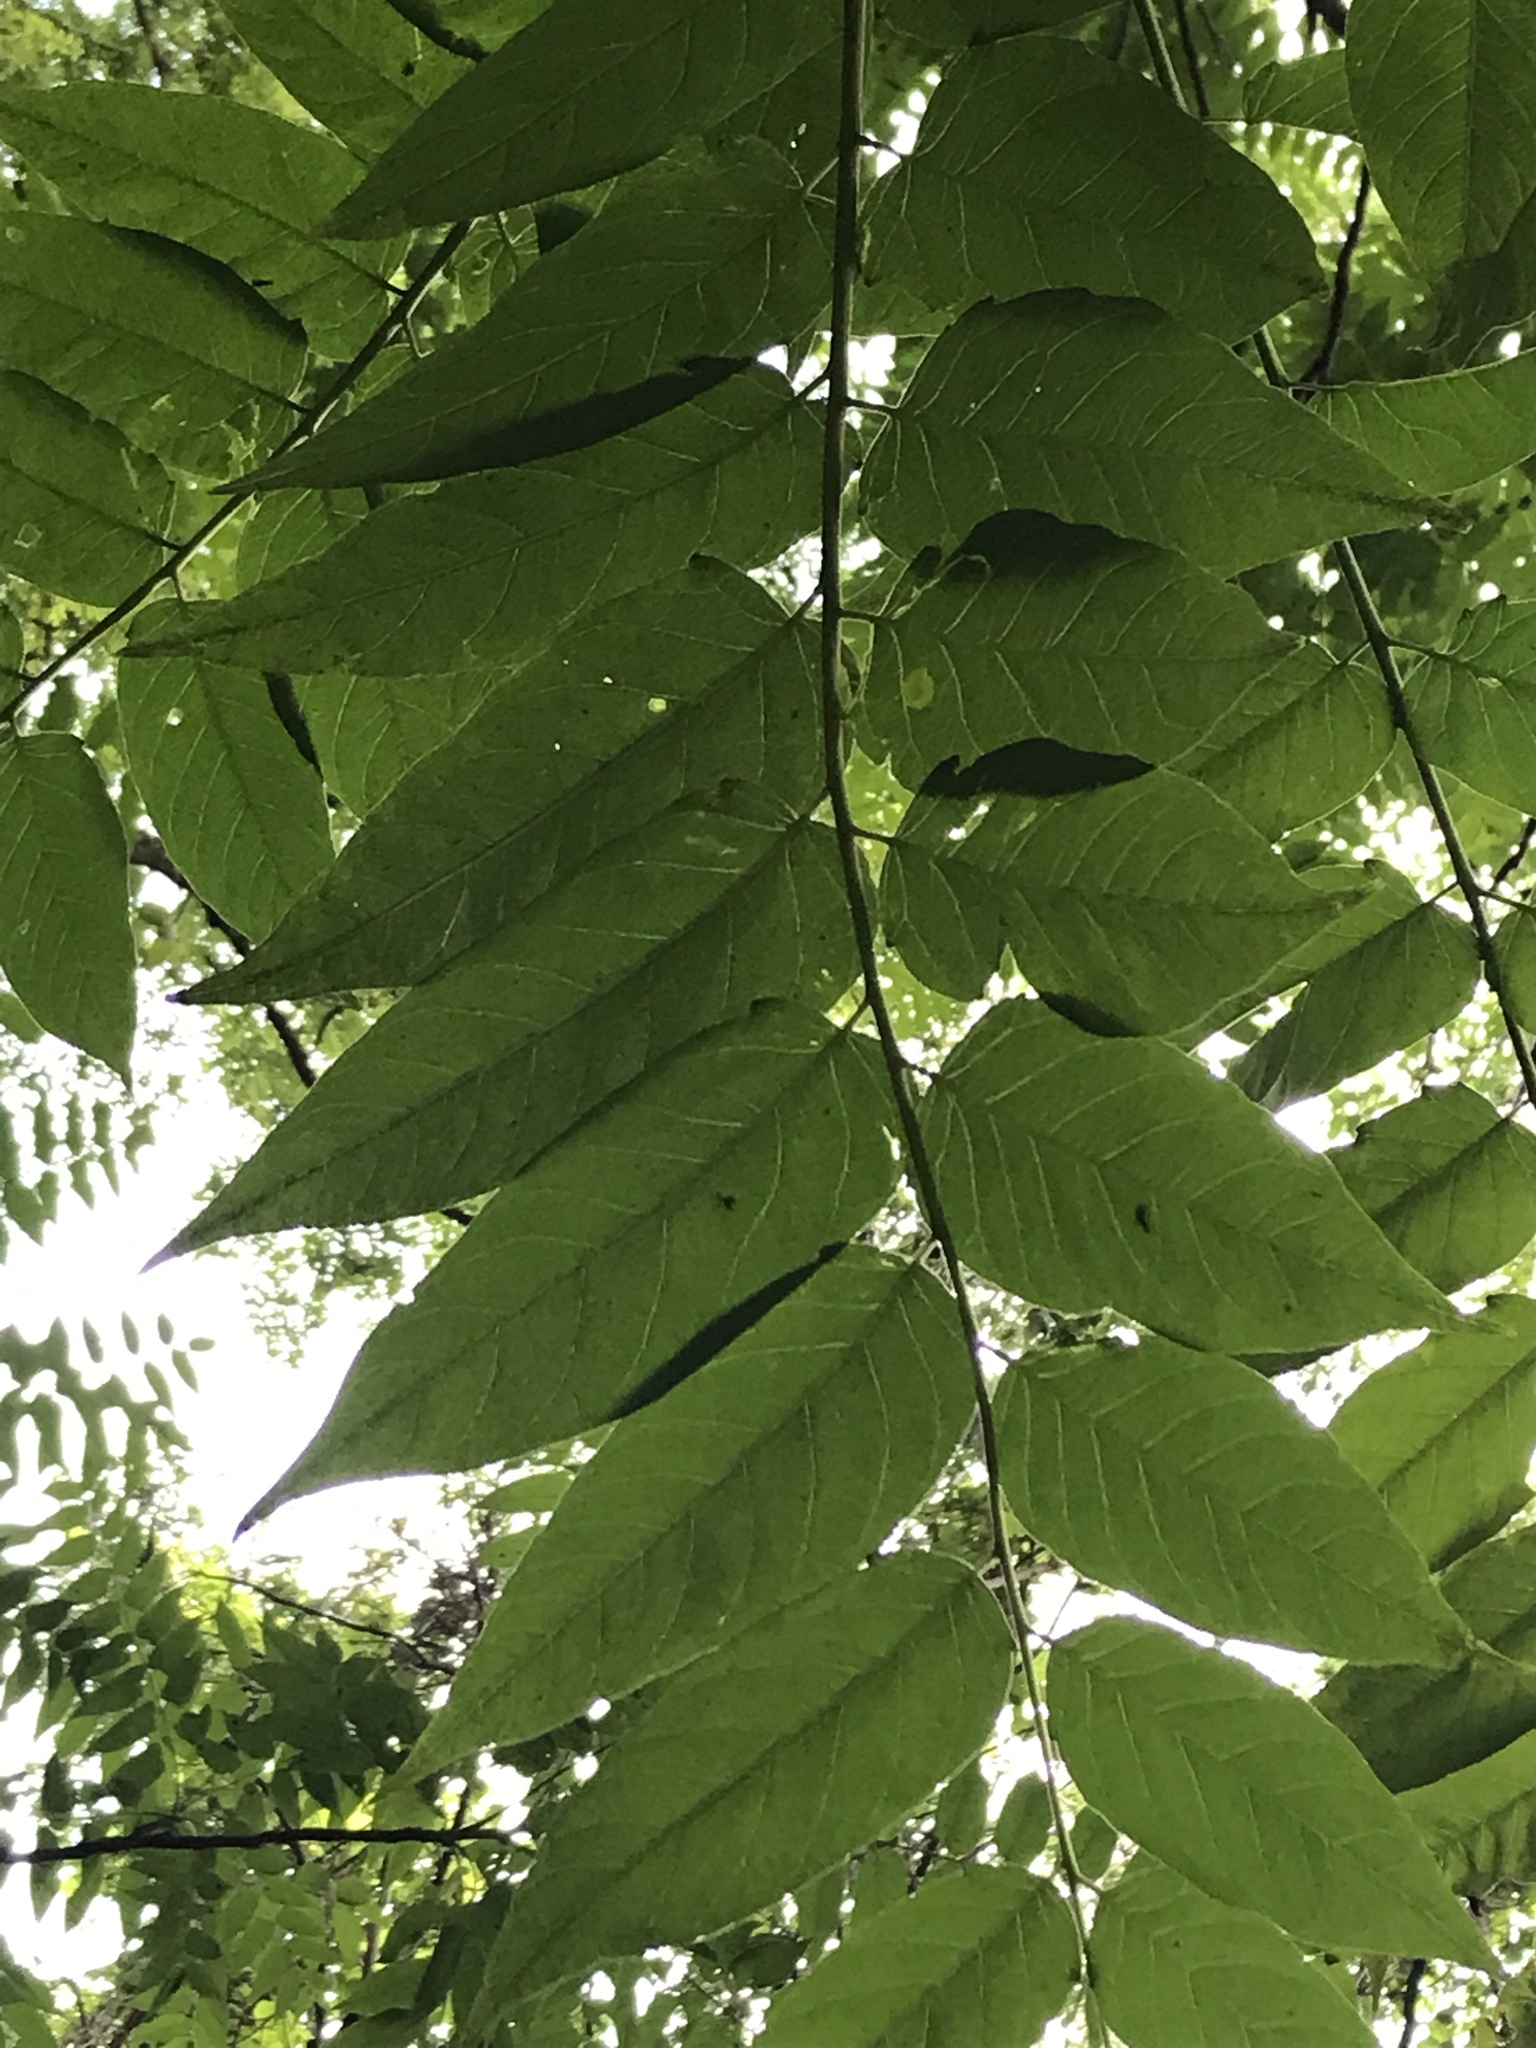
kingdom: Plantae
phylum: Tracheophyta
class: Magnoliopsida
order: Sapindales
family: Simaroubaceae
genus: Ailanthus
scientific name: Ailanthus altissima
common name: Tree-of-heaven
